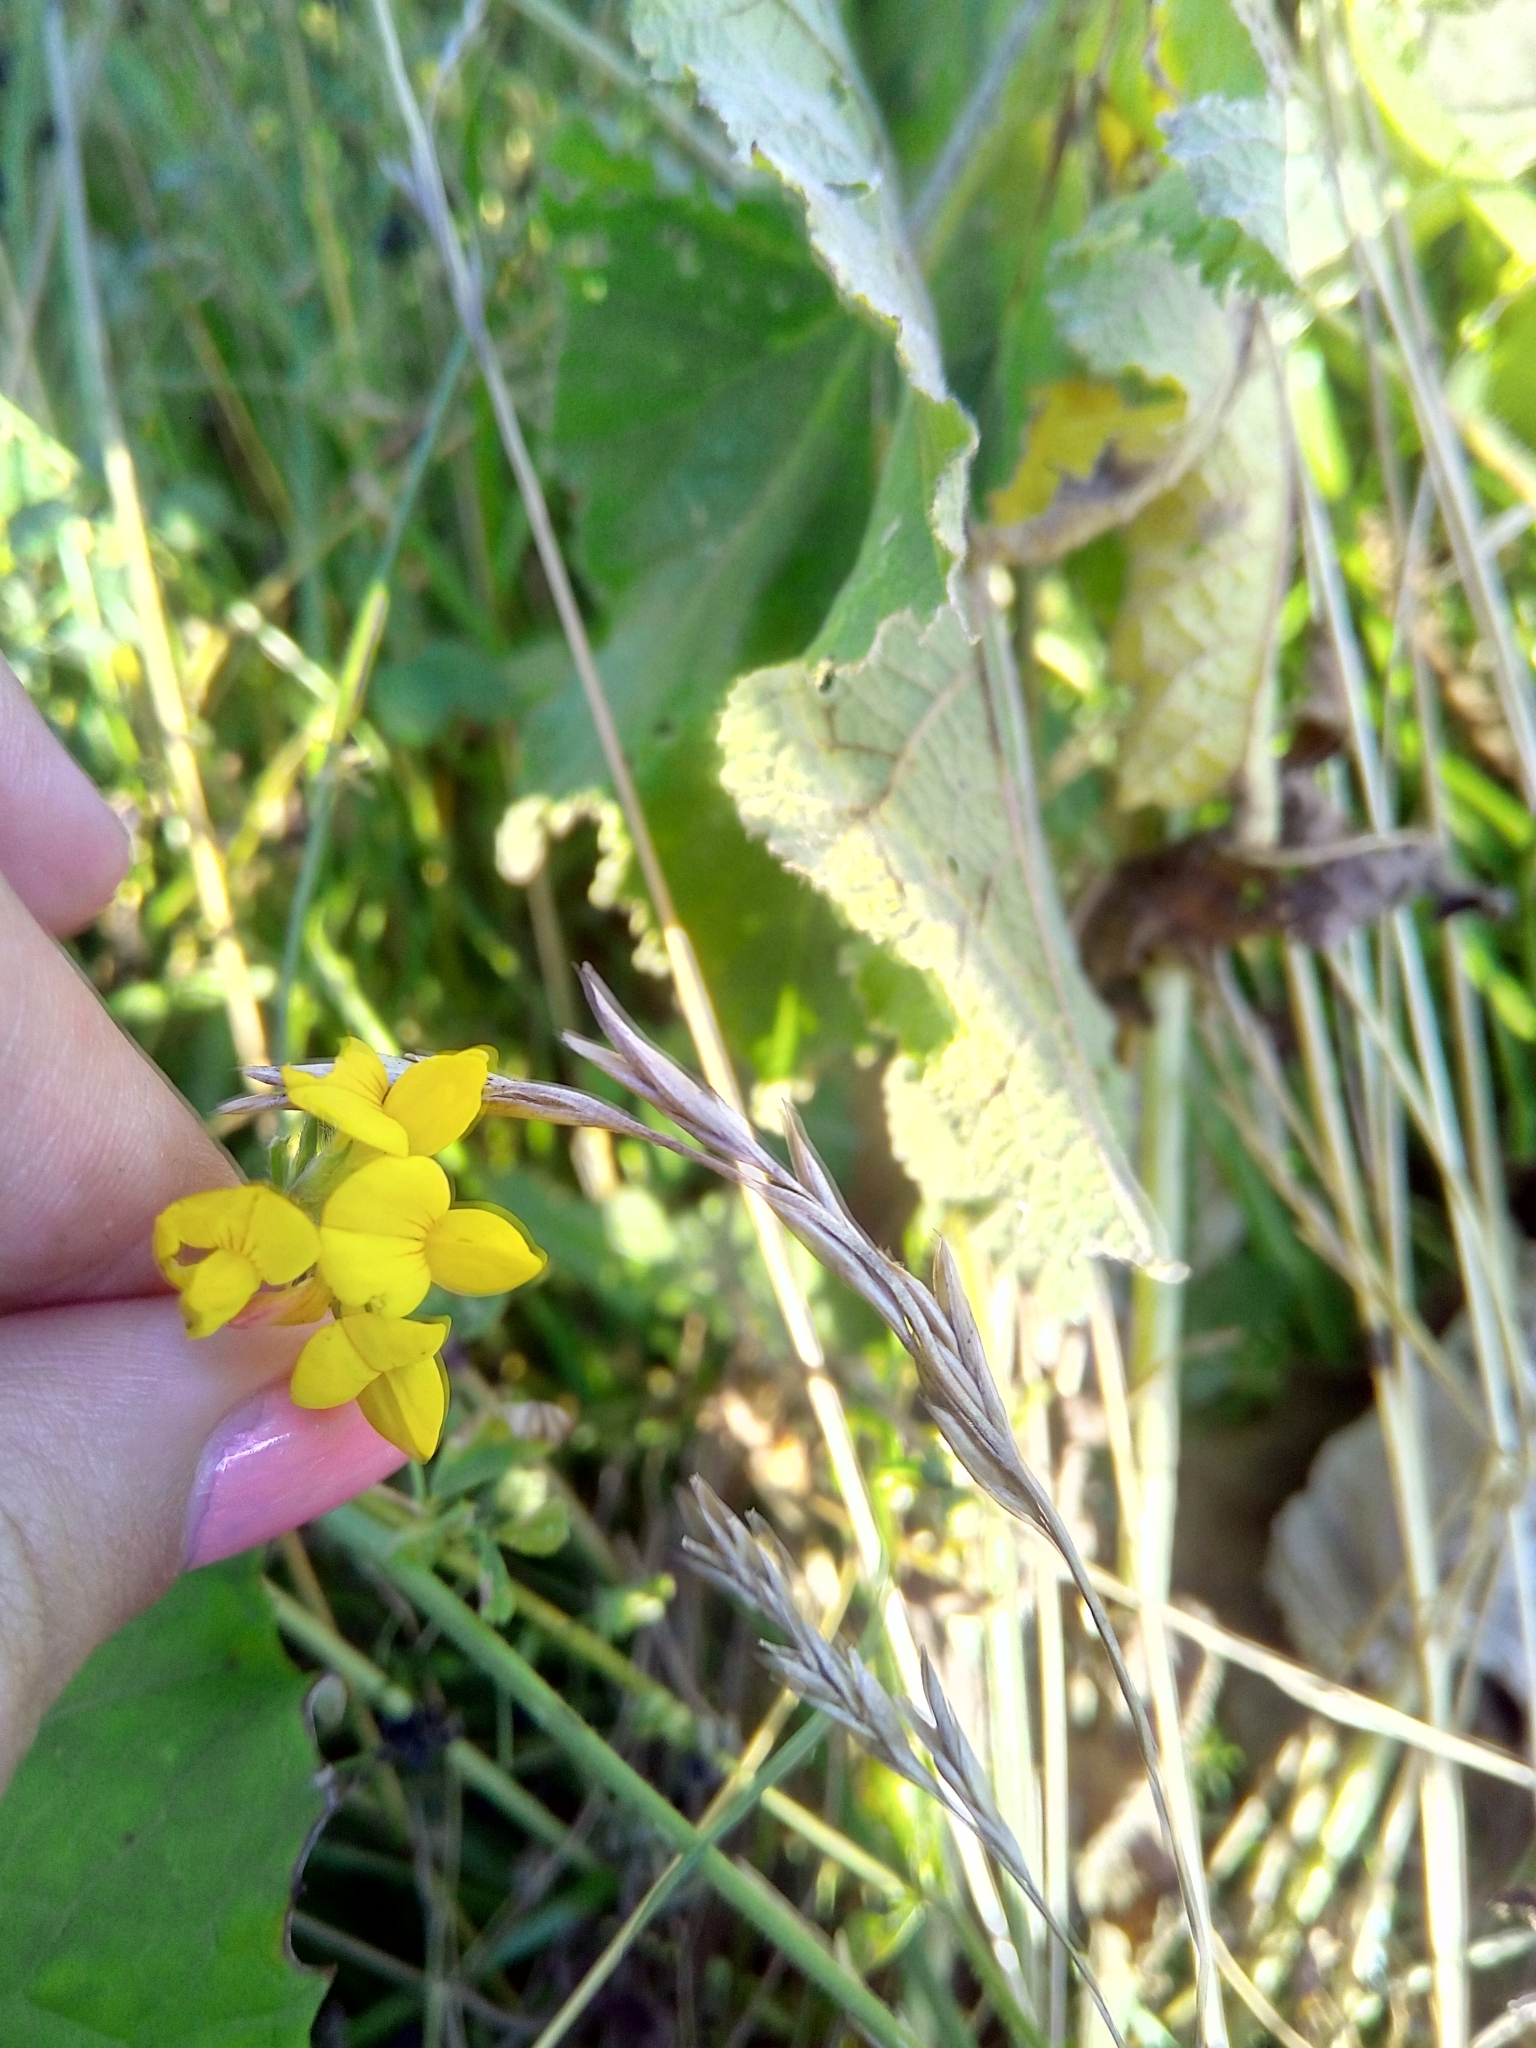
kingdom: Plantae
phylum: Tracheophyta
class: Magnoliopsida
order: Fabales
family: Fabaceae
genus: Lotus
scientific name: Lotus corniculatus
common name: Common bird's-foot-trefoil
